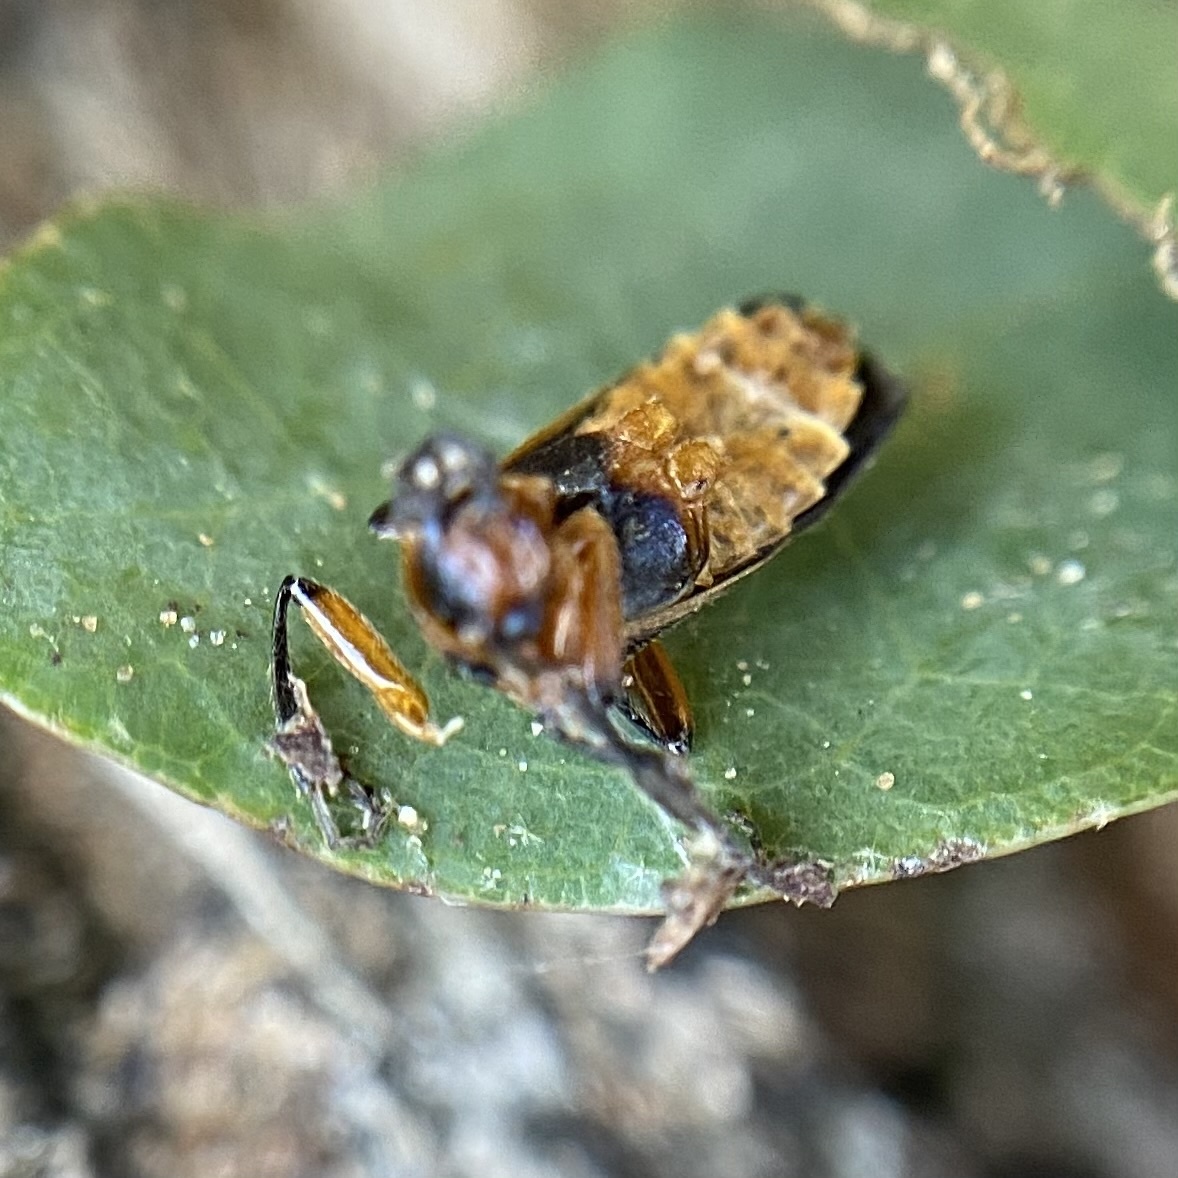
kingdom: Animalia
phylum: Arthropoda
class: Insecta
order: Coleoptera
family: Cantharidae
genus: Atalantycha
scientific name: Atalantycha bilineata
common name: Two-lined leatherwing
